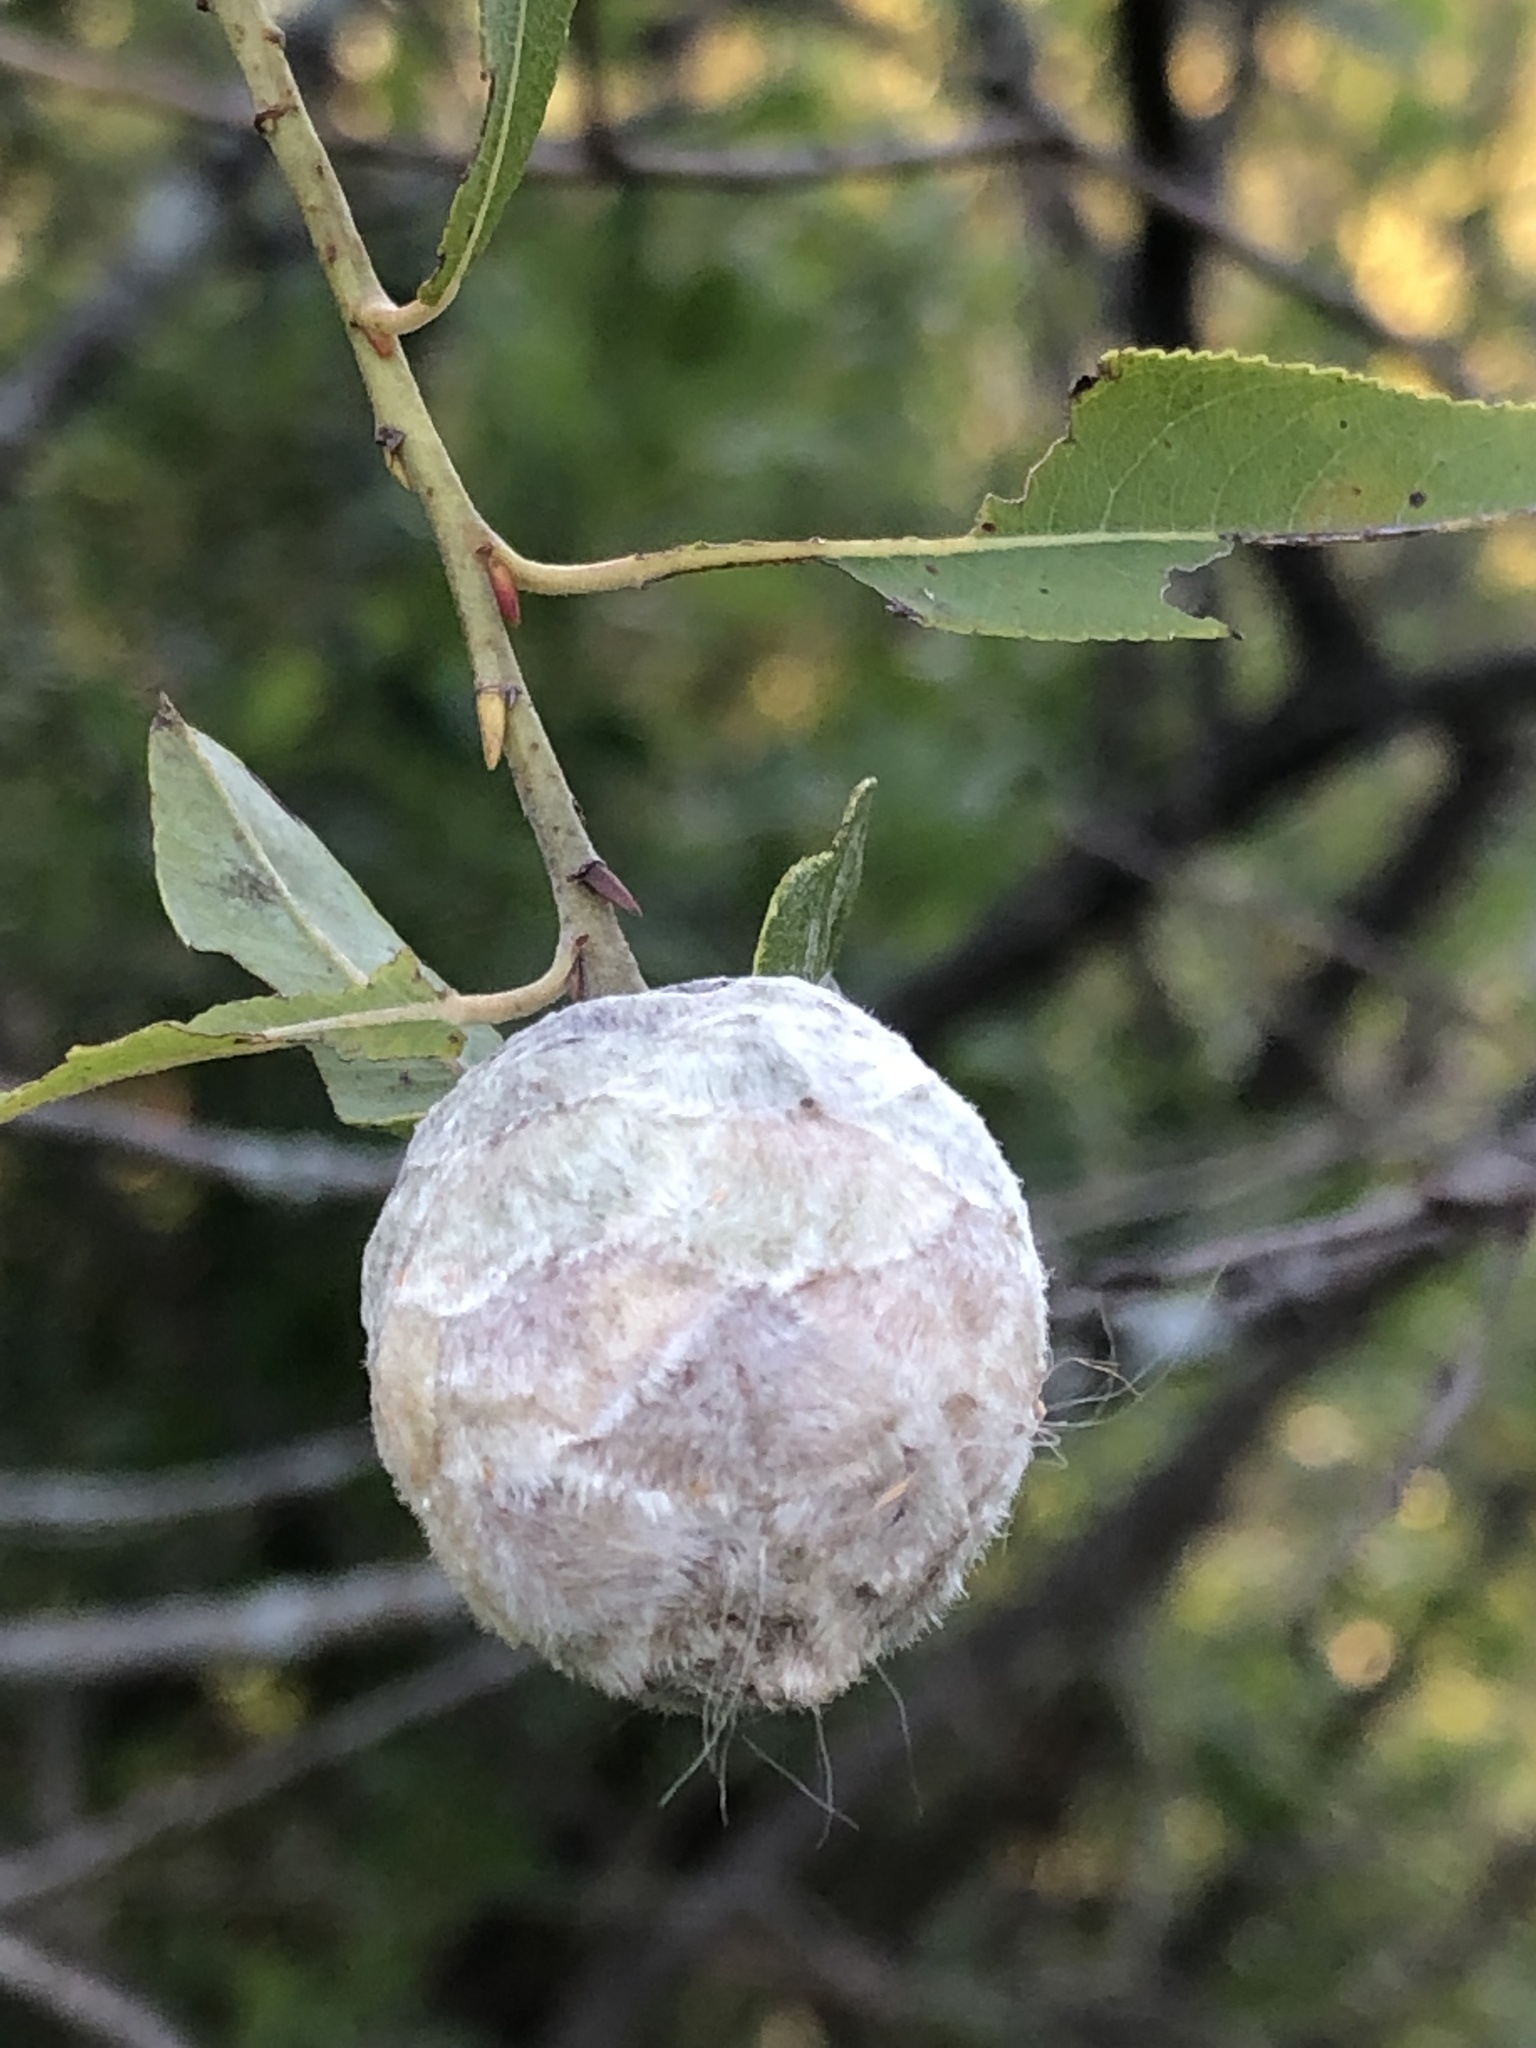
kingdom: Animalia
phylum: Arthropoda
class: Insecta
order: Diptera
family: Cecidomyiidae
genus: Rabdophaga
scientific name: Rabdophaga strobiloides
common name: Willow pinecone gall midge
